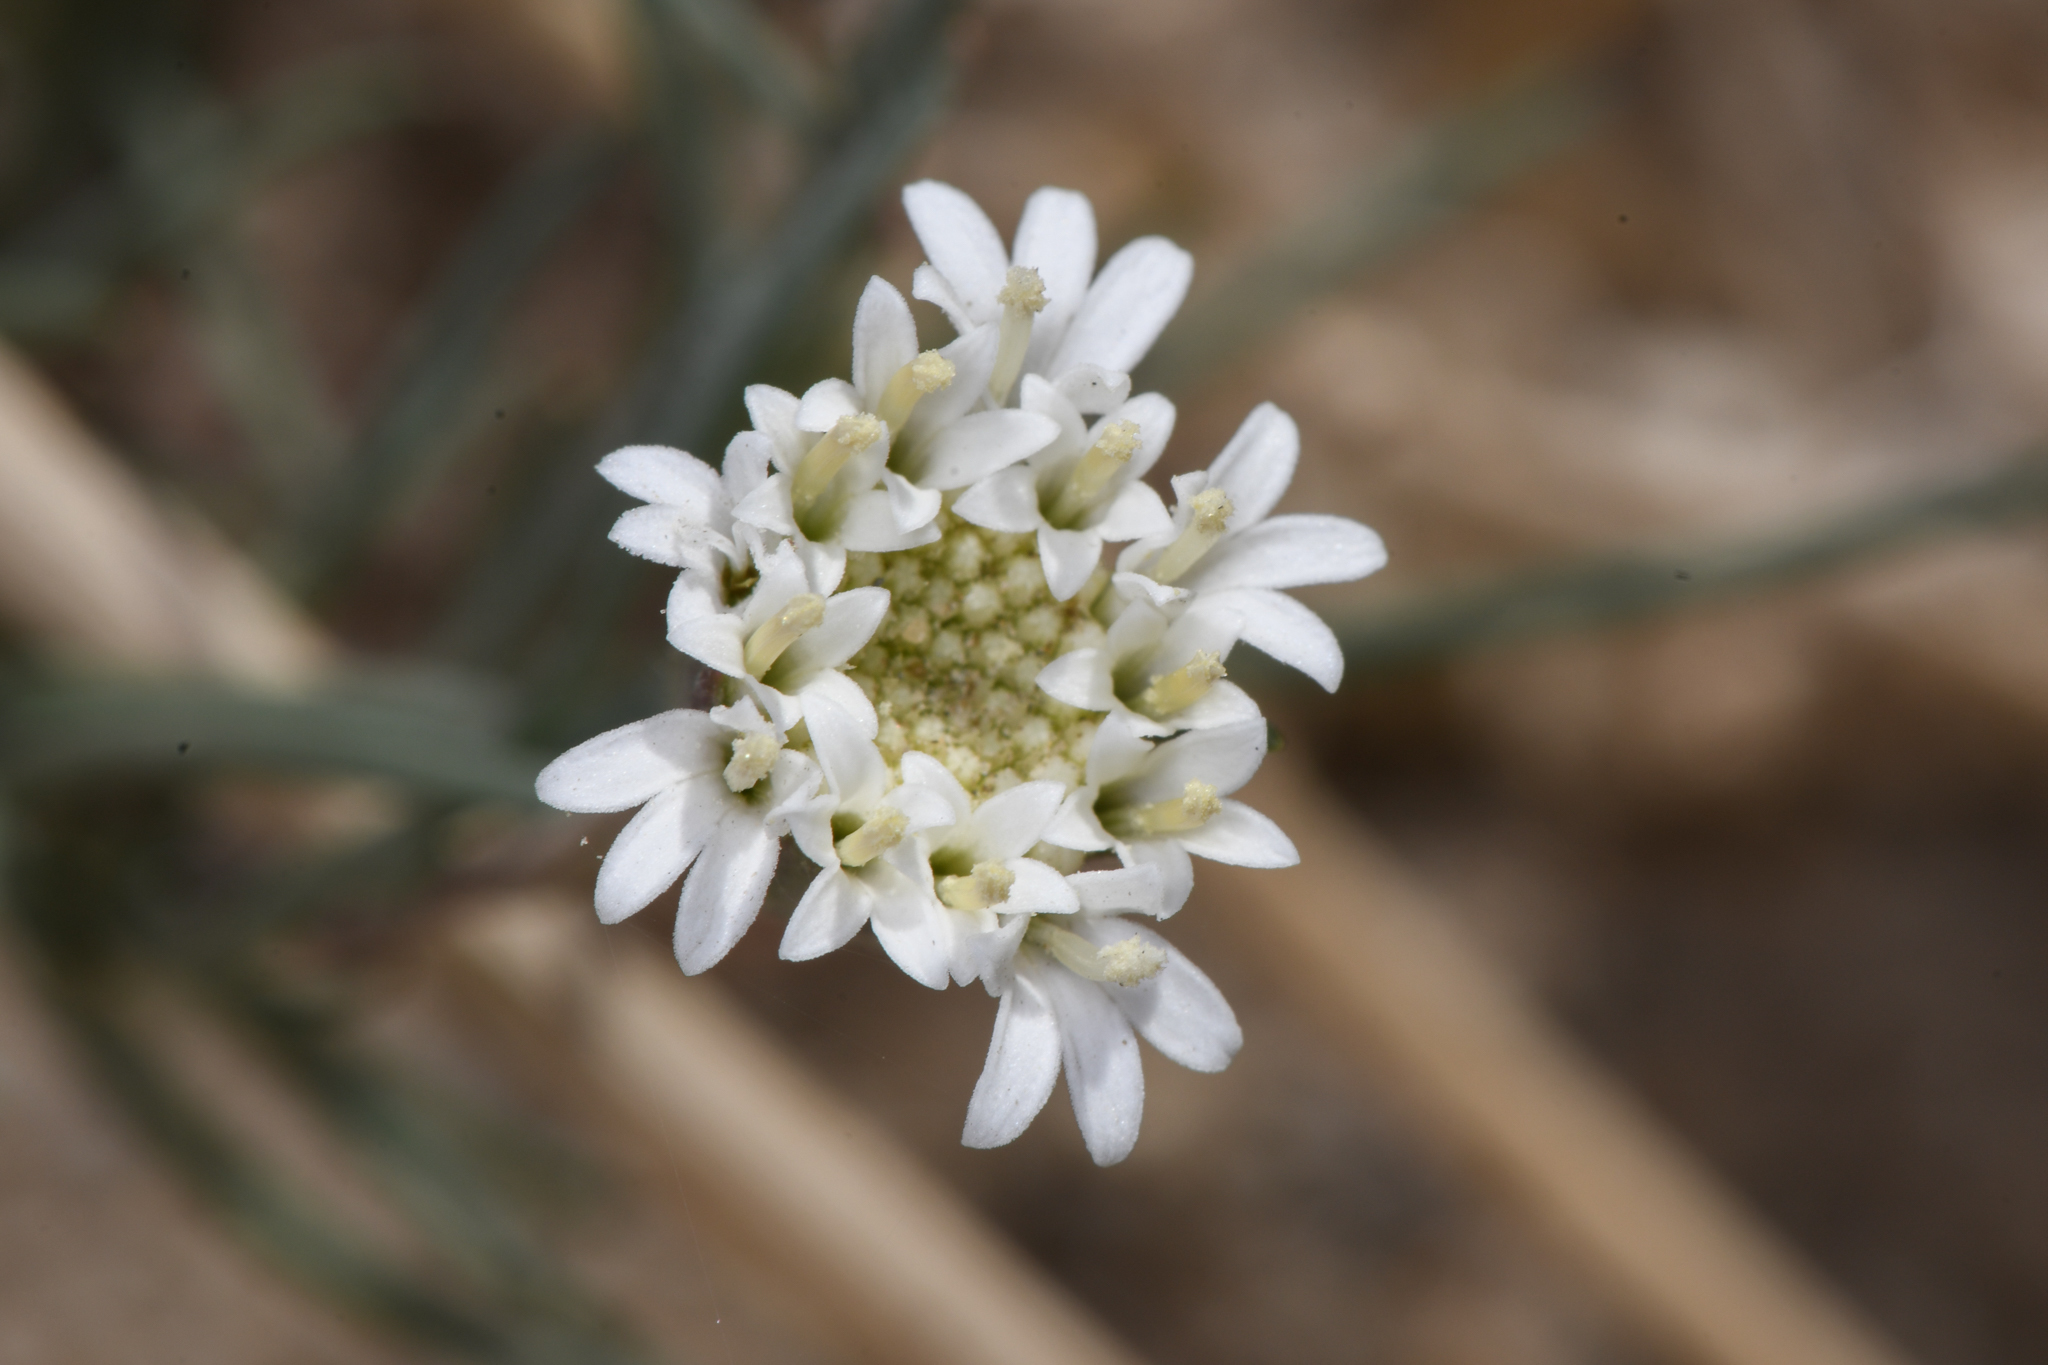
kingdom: Plantae
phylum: Tracheophyta
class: Magnoliopsida
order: Asterales
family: Asteraceae
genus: Chaenactis
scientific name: Chaenactis fremontii
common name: Fremont pincushion
